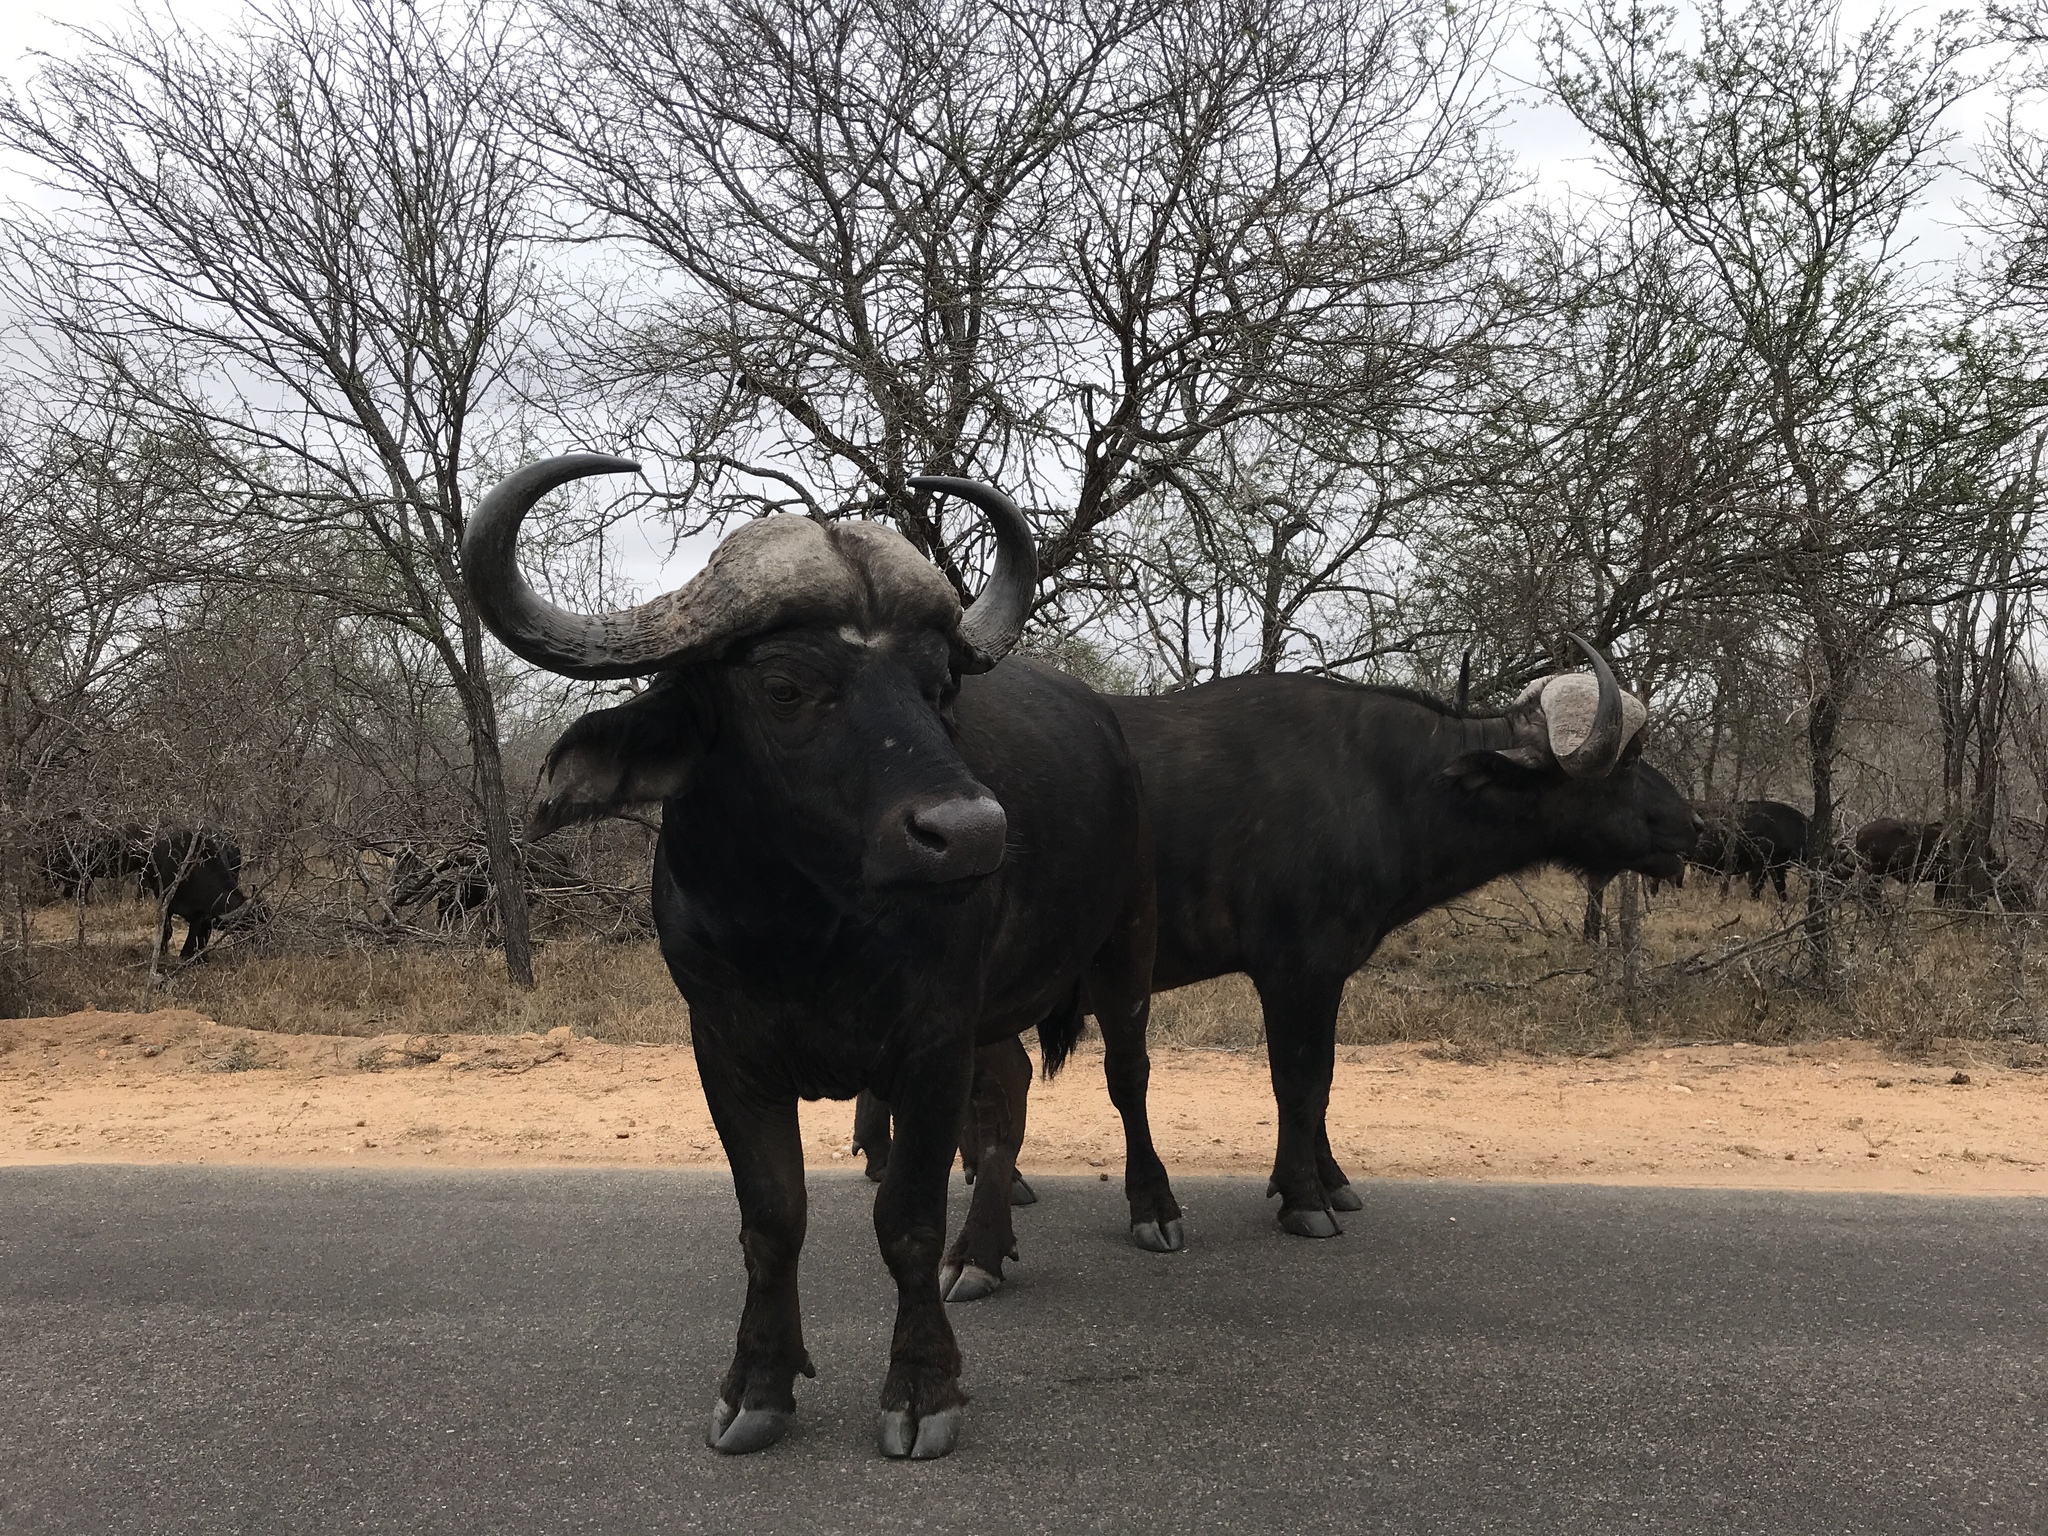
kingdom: Animalia
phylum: Chordata
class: Mammalia
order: Artiodactyla
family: Bovidae
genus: Syncerus
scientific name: Syncerus caffer
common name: African buffalo
